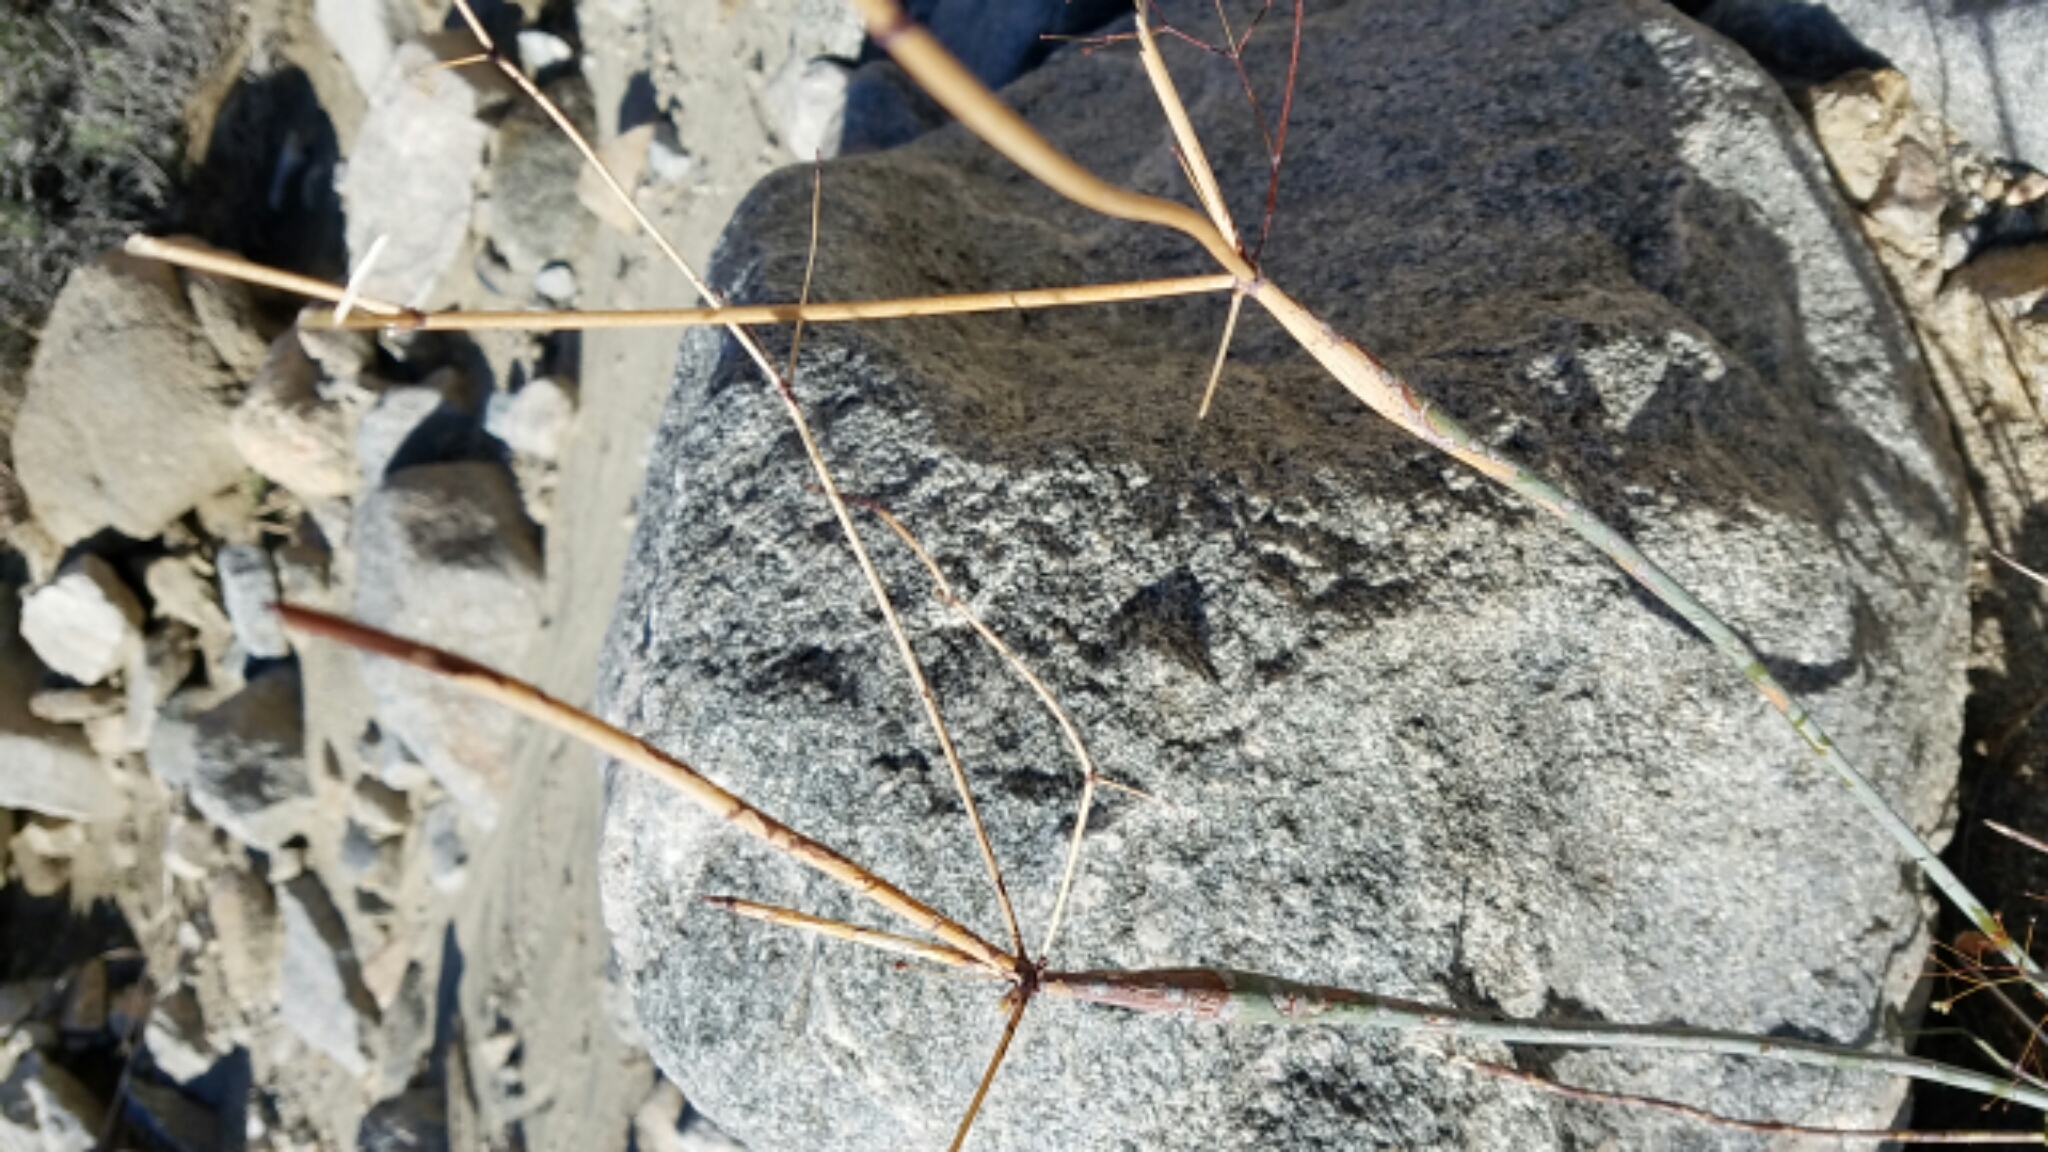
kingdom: Plantae
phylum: Tracheophyta
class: Magnoliopsida
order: Caryophyllales
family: Polygonaceae
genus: Eriogonum
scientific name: Eriogonum inflatum
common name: Desert trumpet
